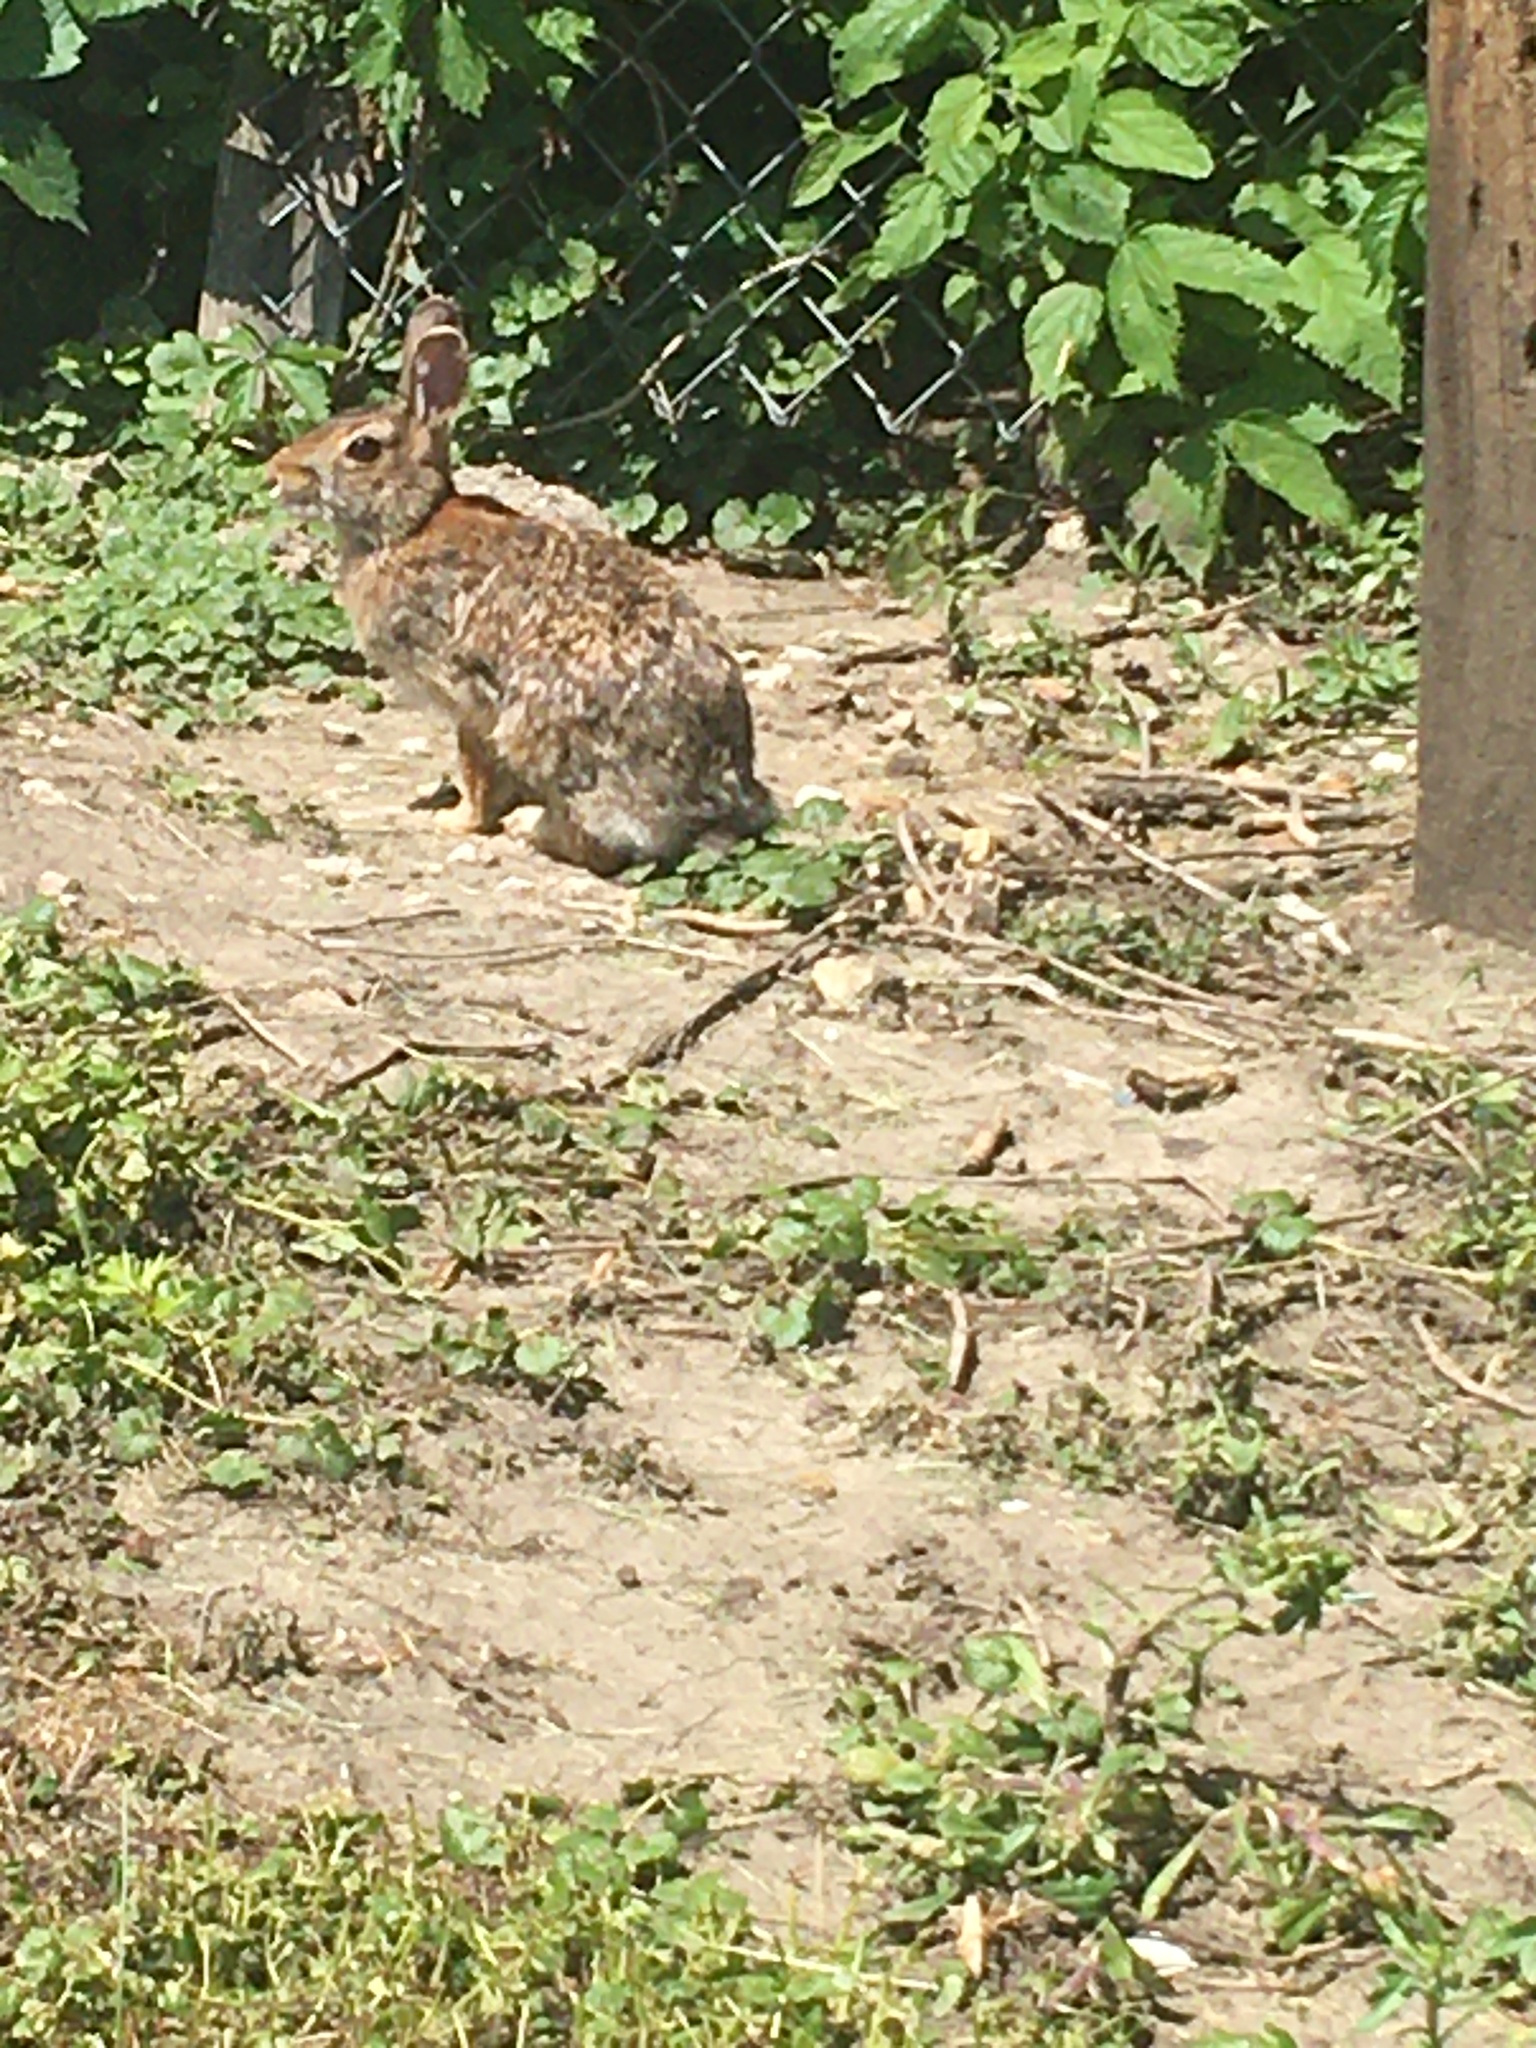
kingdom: Animalia
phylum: Chordata
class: Mammalia
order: Lagomorpha
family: Leporidae
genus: Sylvilagus
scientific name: Sylvilagus floridanus
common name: Eastern cottontail
